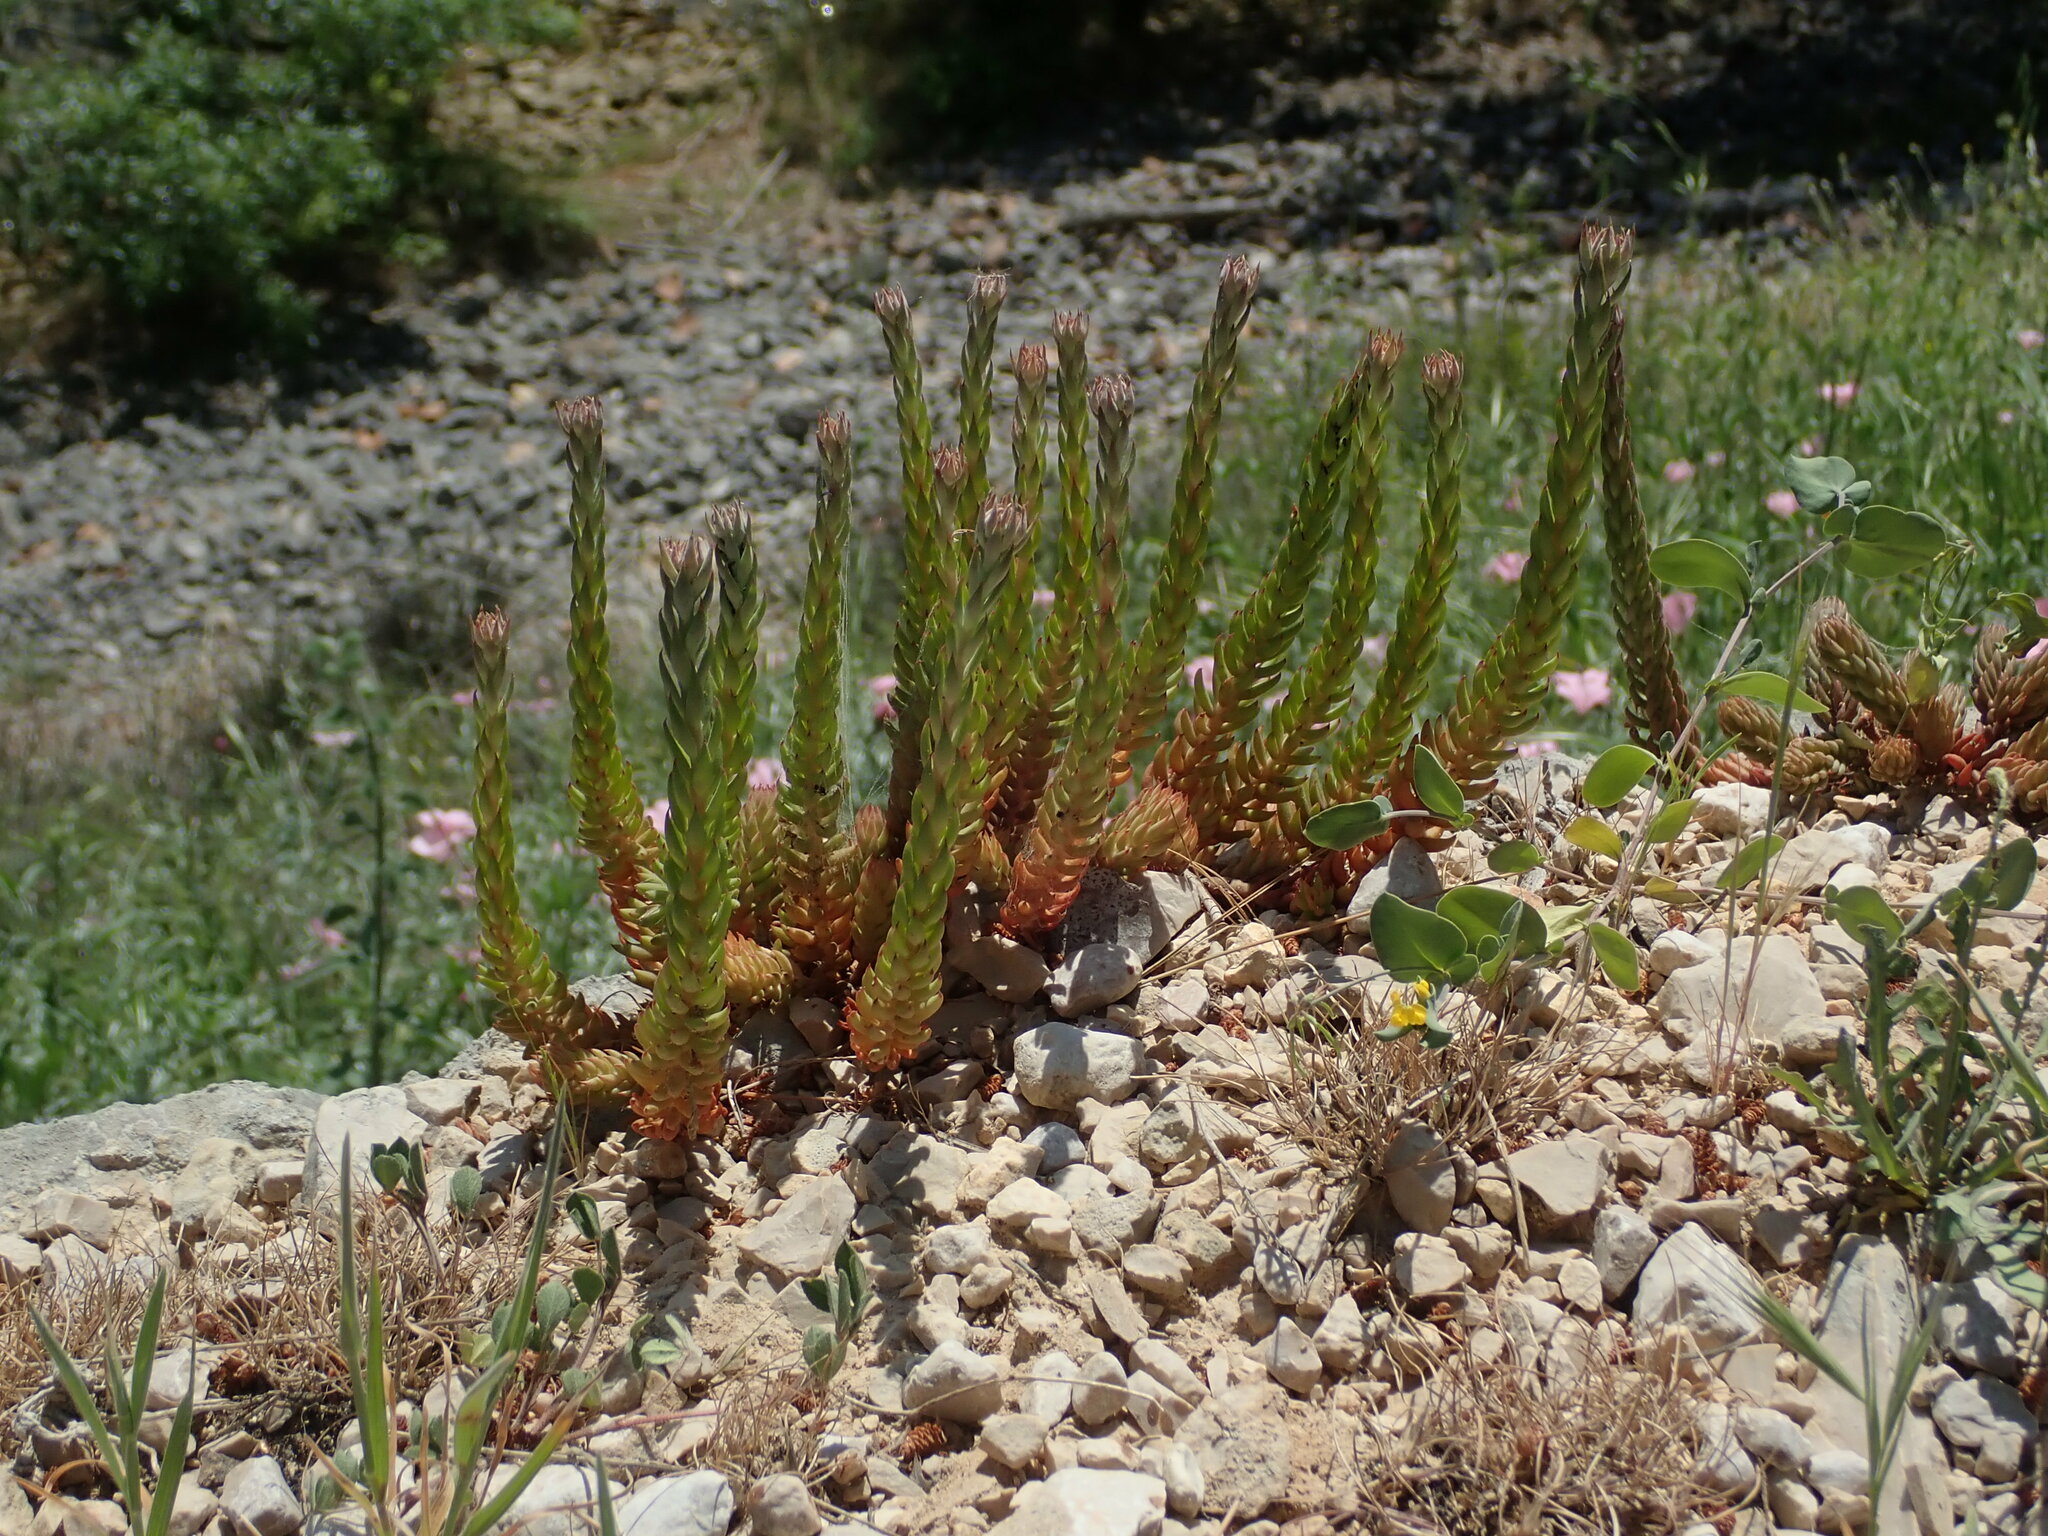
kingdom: Plantae
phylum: Tracheophyta
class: Magnoliopsida
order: Saxifragales
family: Crassulaceae
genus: Petrosedum
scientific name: Petrosedum ochroleucum
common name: European stonecrop
